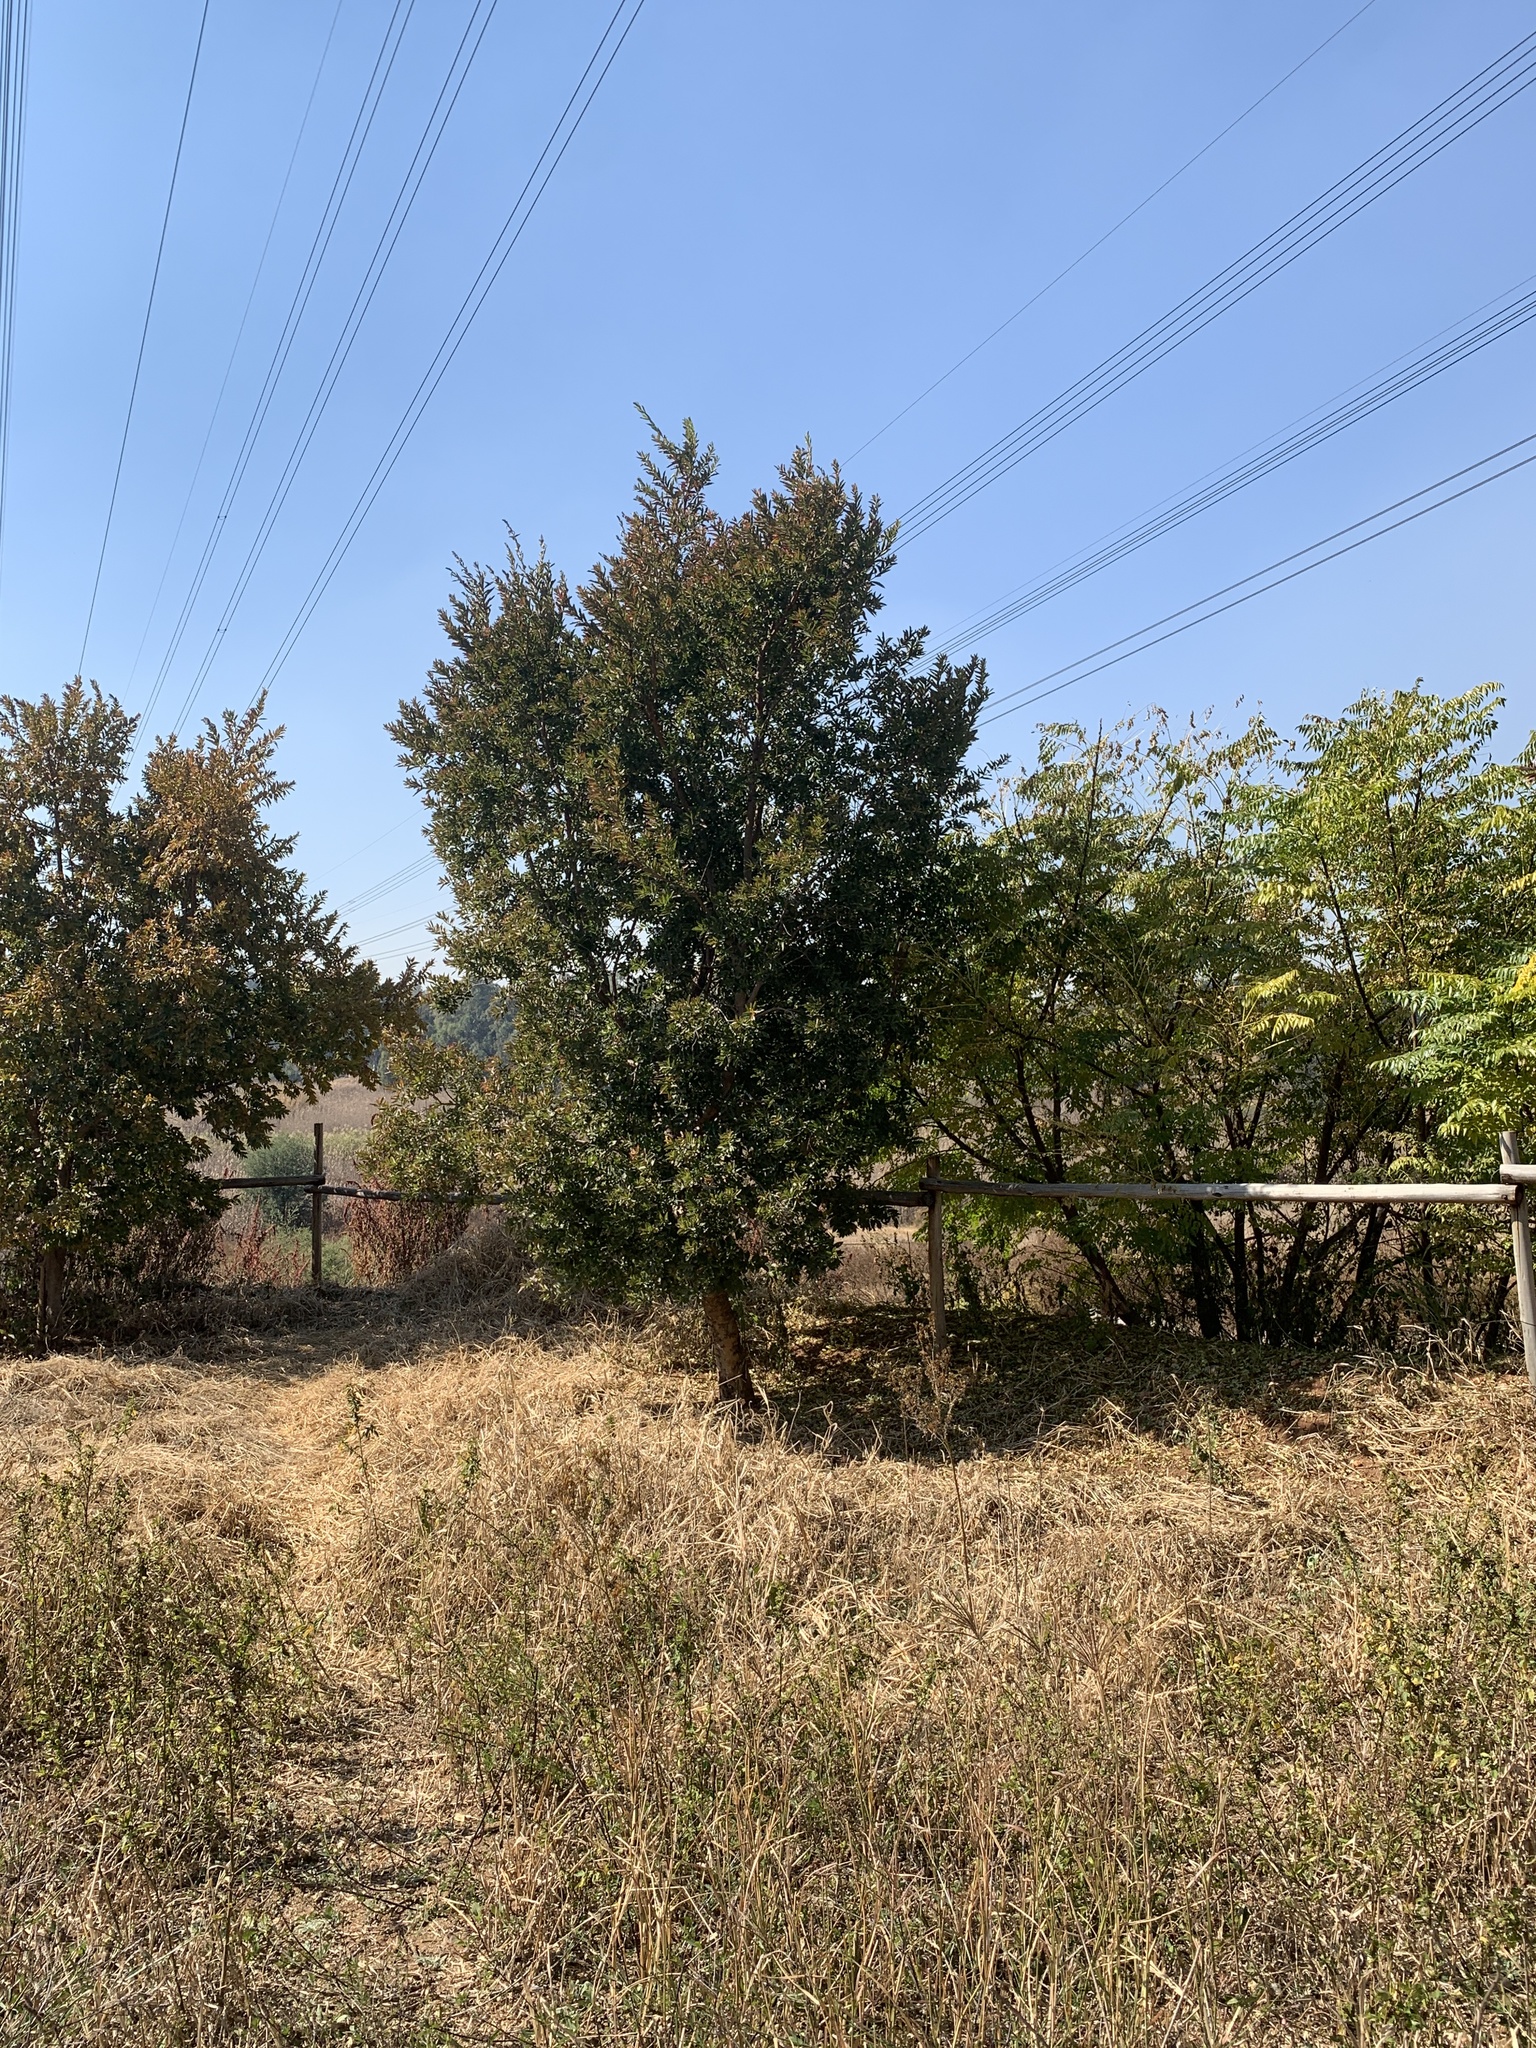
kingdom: Plantae
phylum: Tracheophyta
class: Magnoliopsida
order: Myrtales
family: Combretaceae
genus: Combretum
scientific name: Combretum erythrophyllum
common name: Bush-willow
